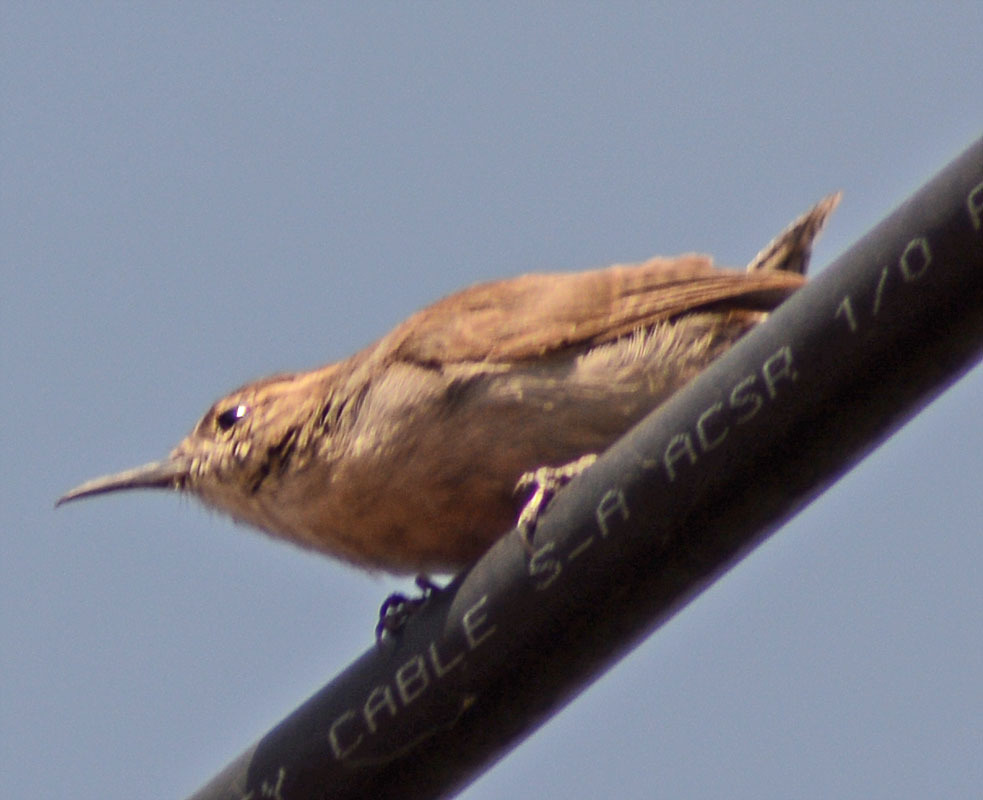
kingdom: Animalia
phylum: Chordata
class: Aves
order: Passeriformes
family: Troglodytidae
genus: Thryomanes
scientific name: Thryomanes bewickii
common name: Bewick's wren
